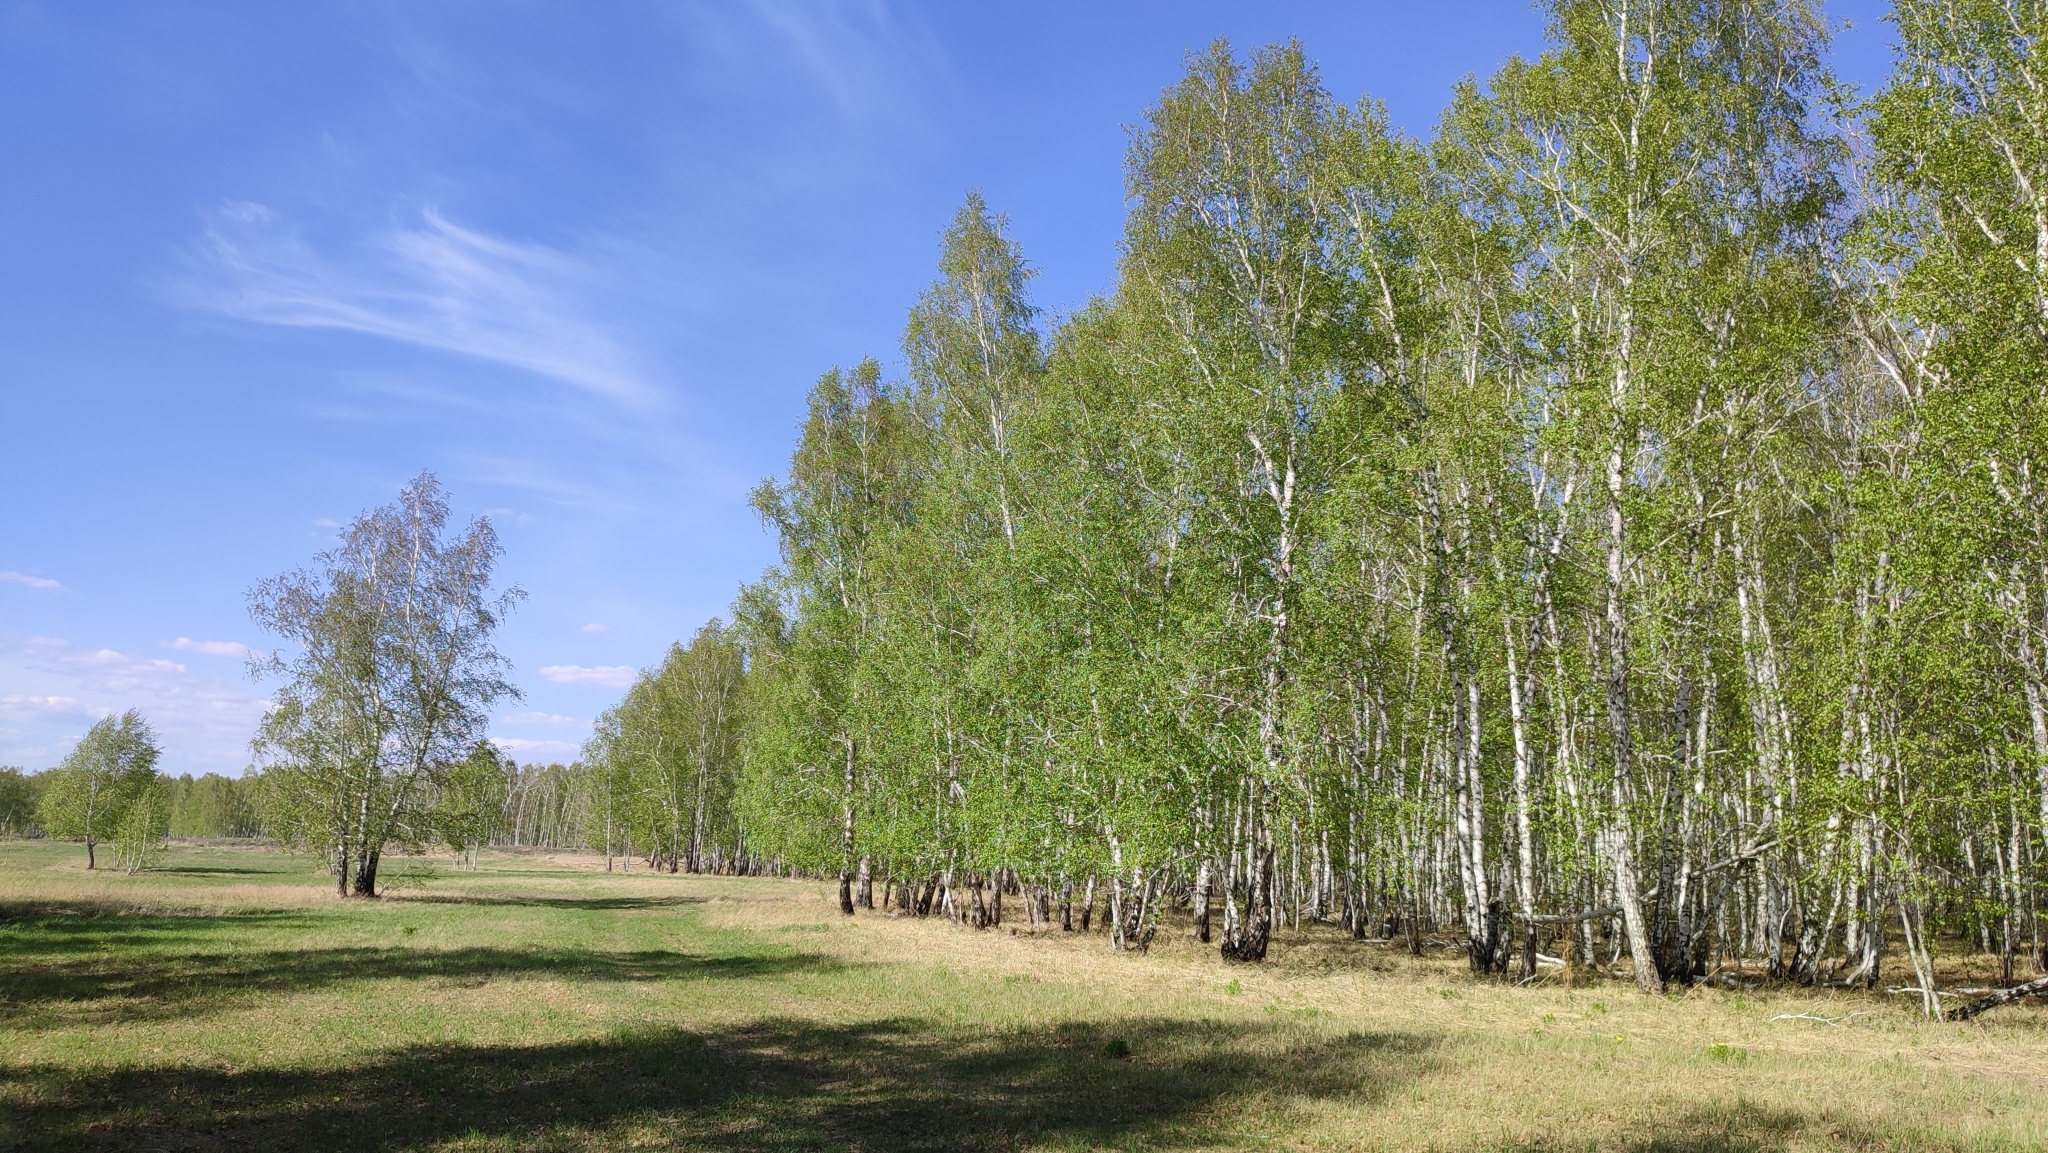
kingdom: Plantae
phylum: Tracheophyta
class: Magnoliopsida
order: Fagales
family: Betulaceae
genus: Betula
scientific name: Betula pendula
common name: Silver birch
